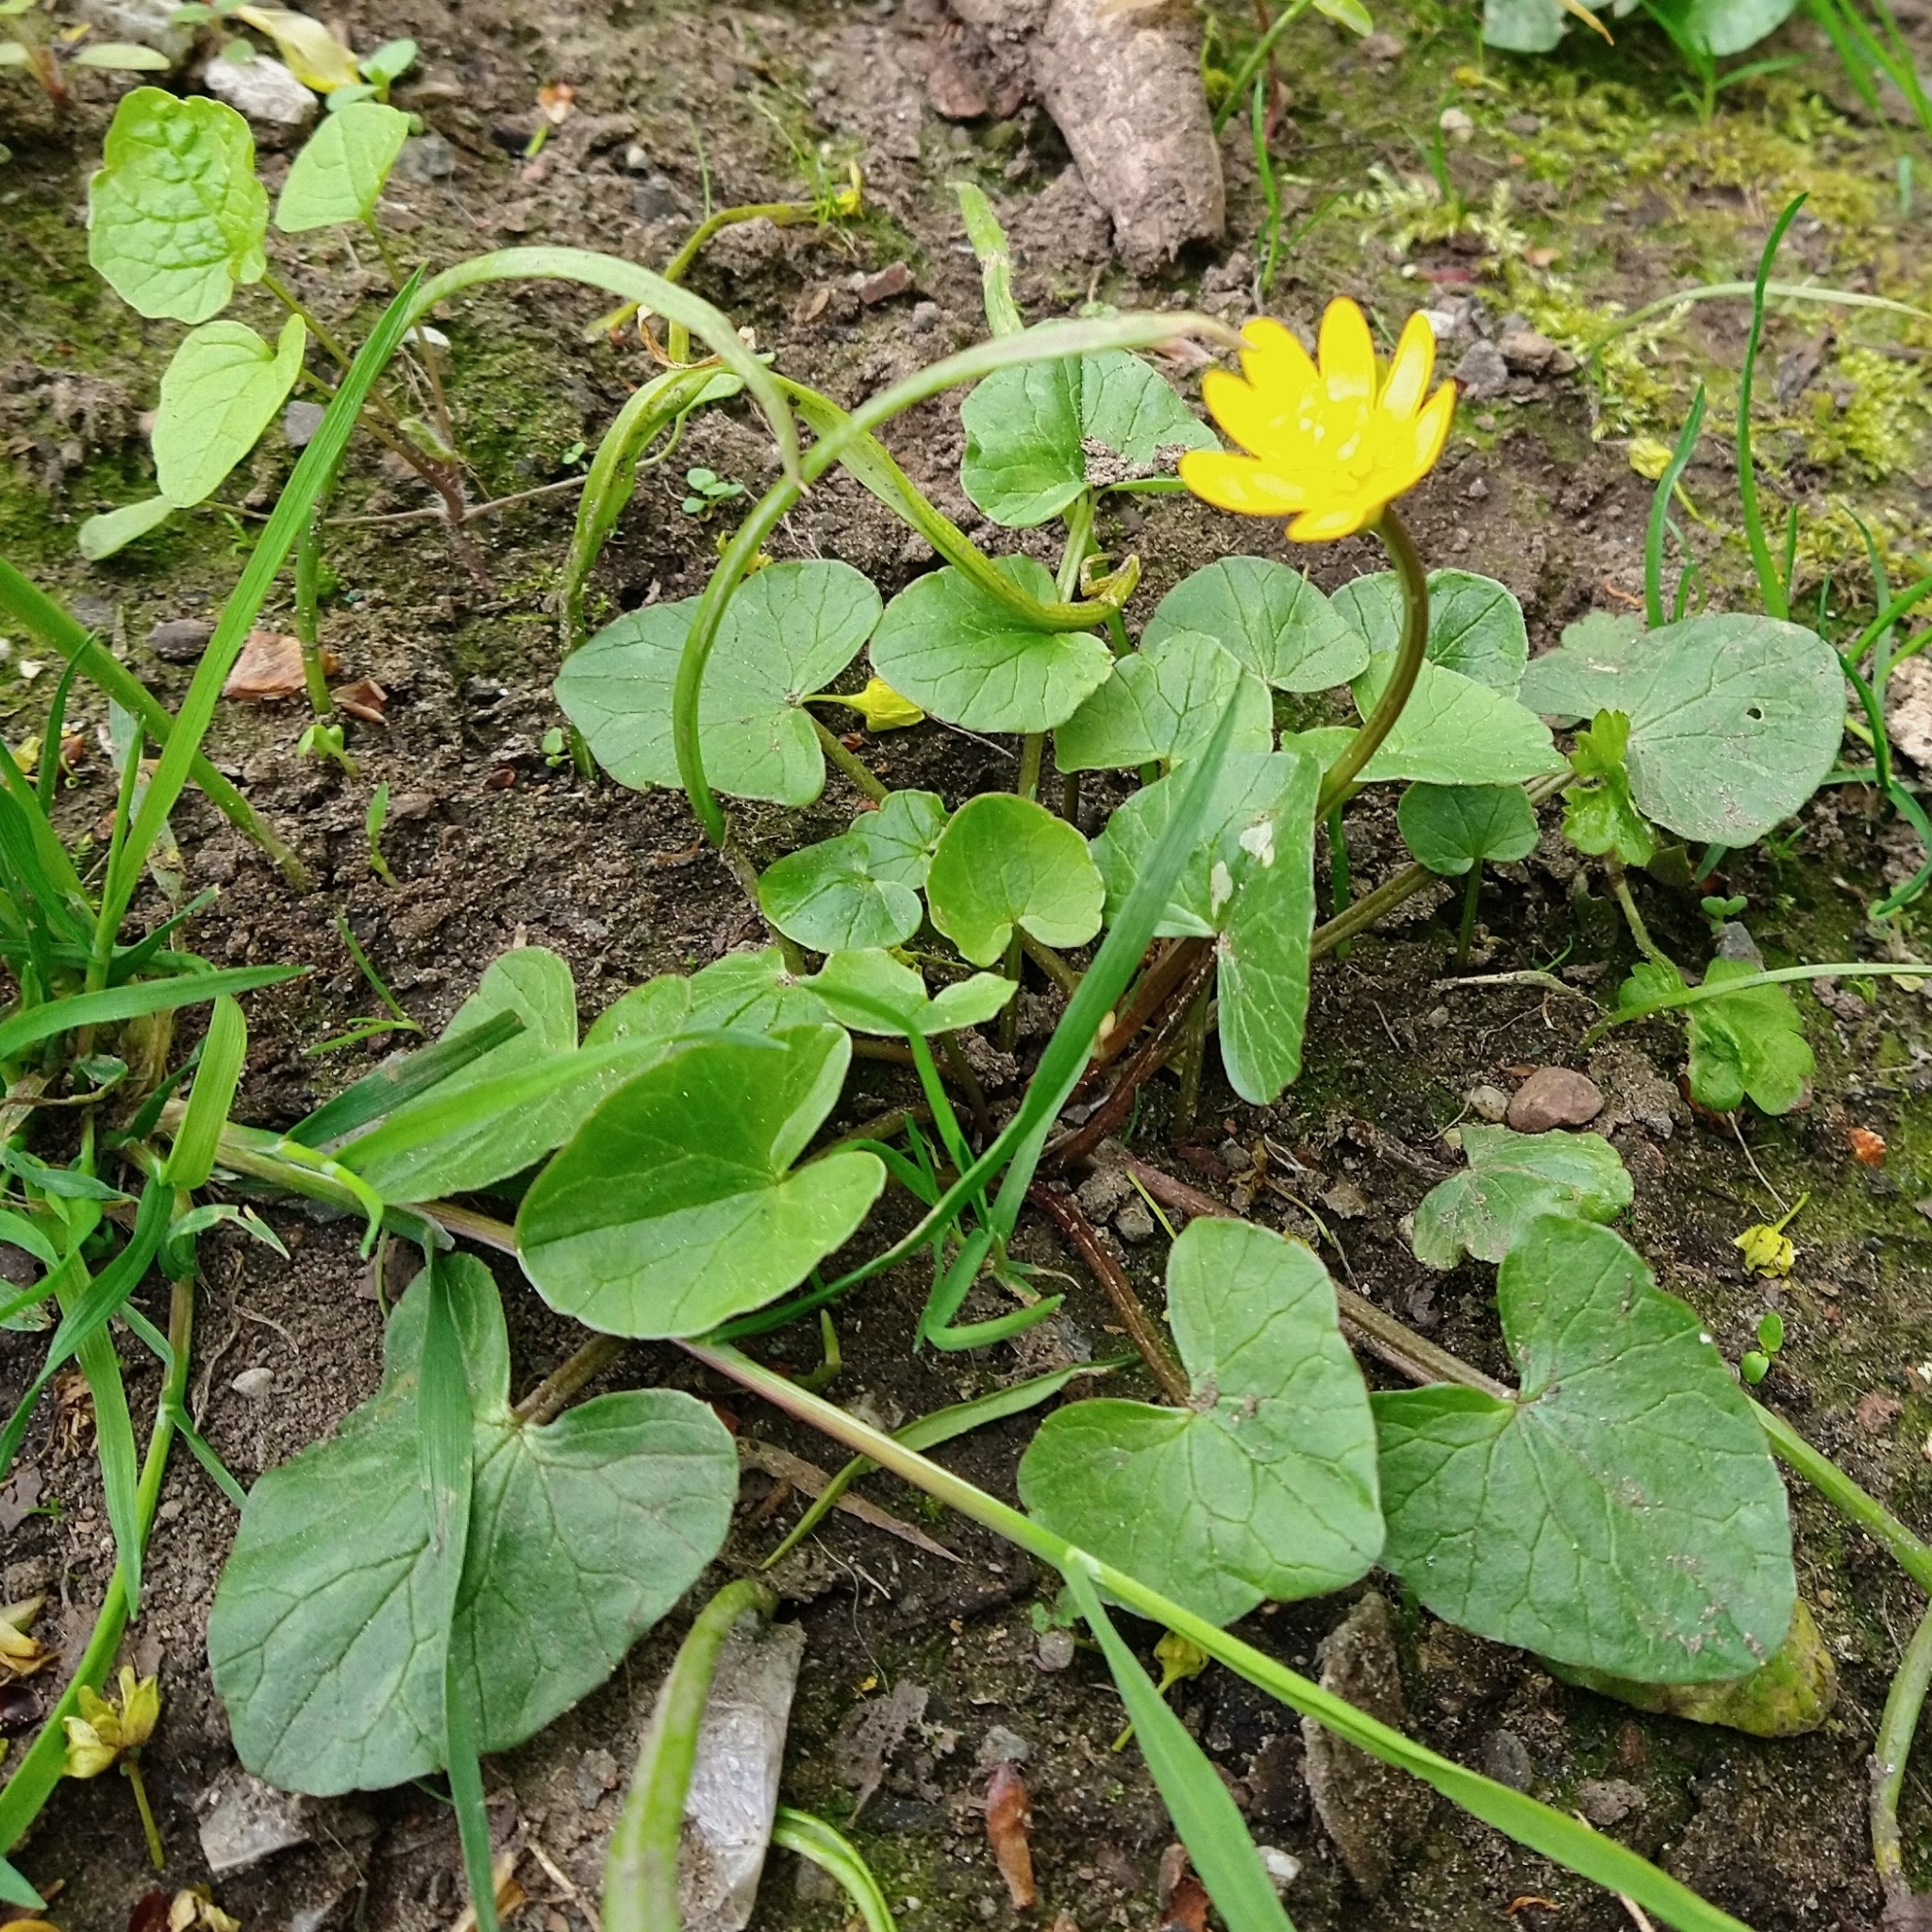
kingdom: Plantae
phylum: Tracheophyta
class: Magnoliopsida
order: Ranunculales
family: Ranunculaceae
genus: Ficaria
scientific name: Ficaria verna
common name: Lesser celandine
